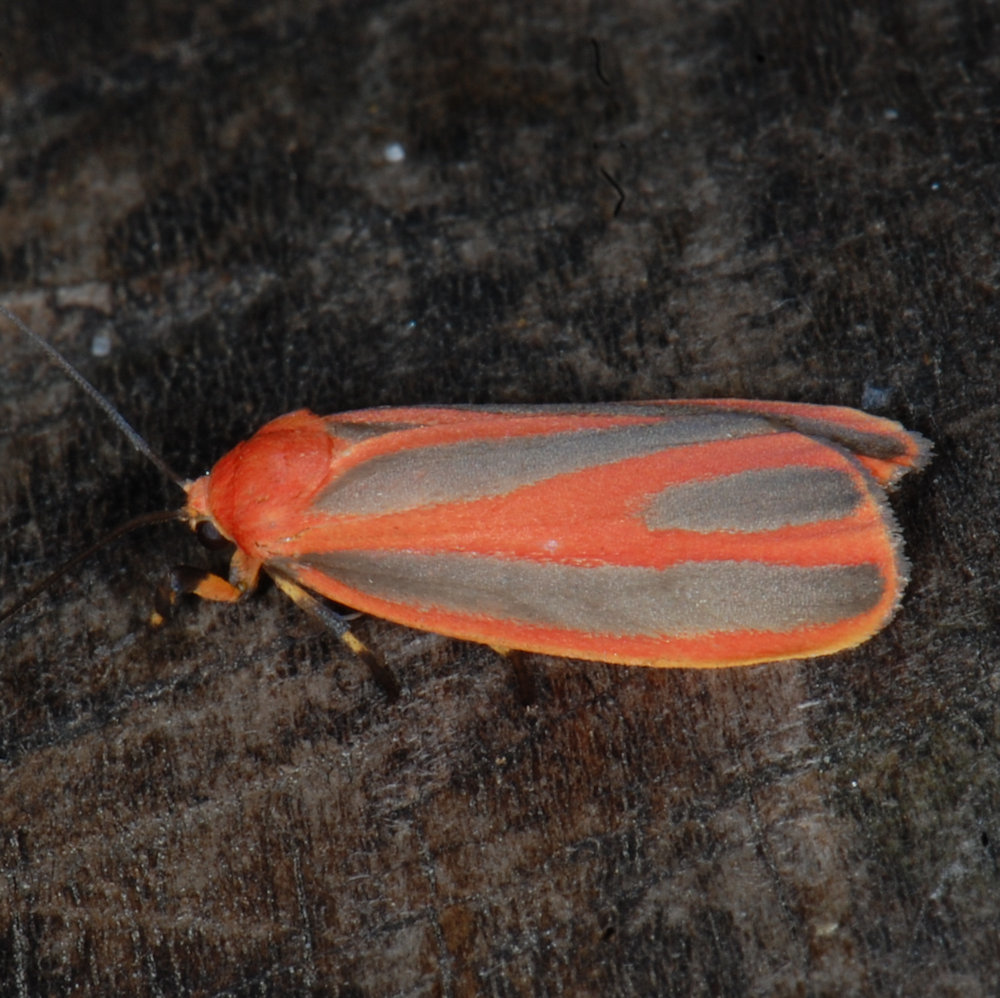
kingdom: Animalia
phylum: Arthropoda
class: Insecta
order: Lepidoptera
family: Erebidae
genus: Hypoprepia
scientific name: Hypoprepia miniata
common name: Scarlet-winged lichen moth
